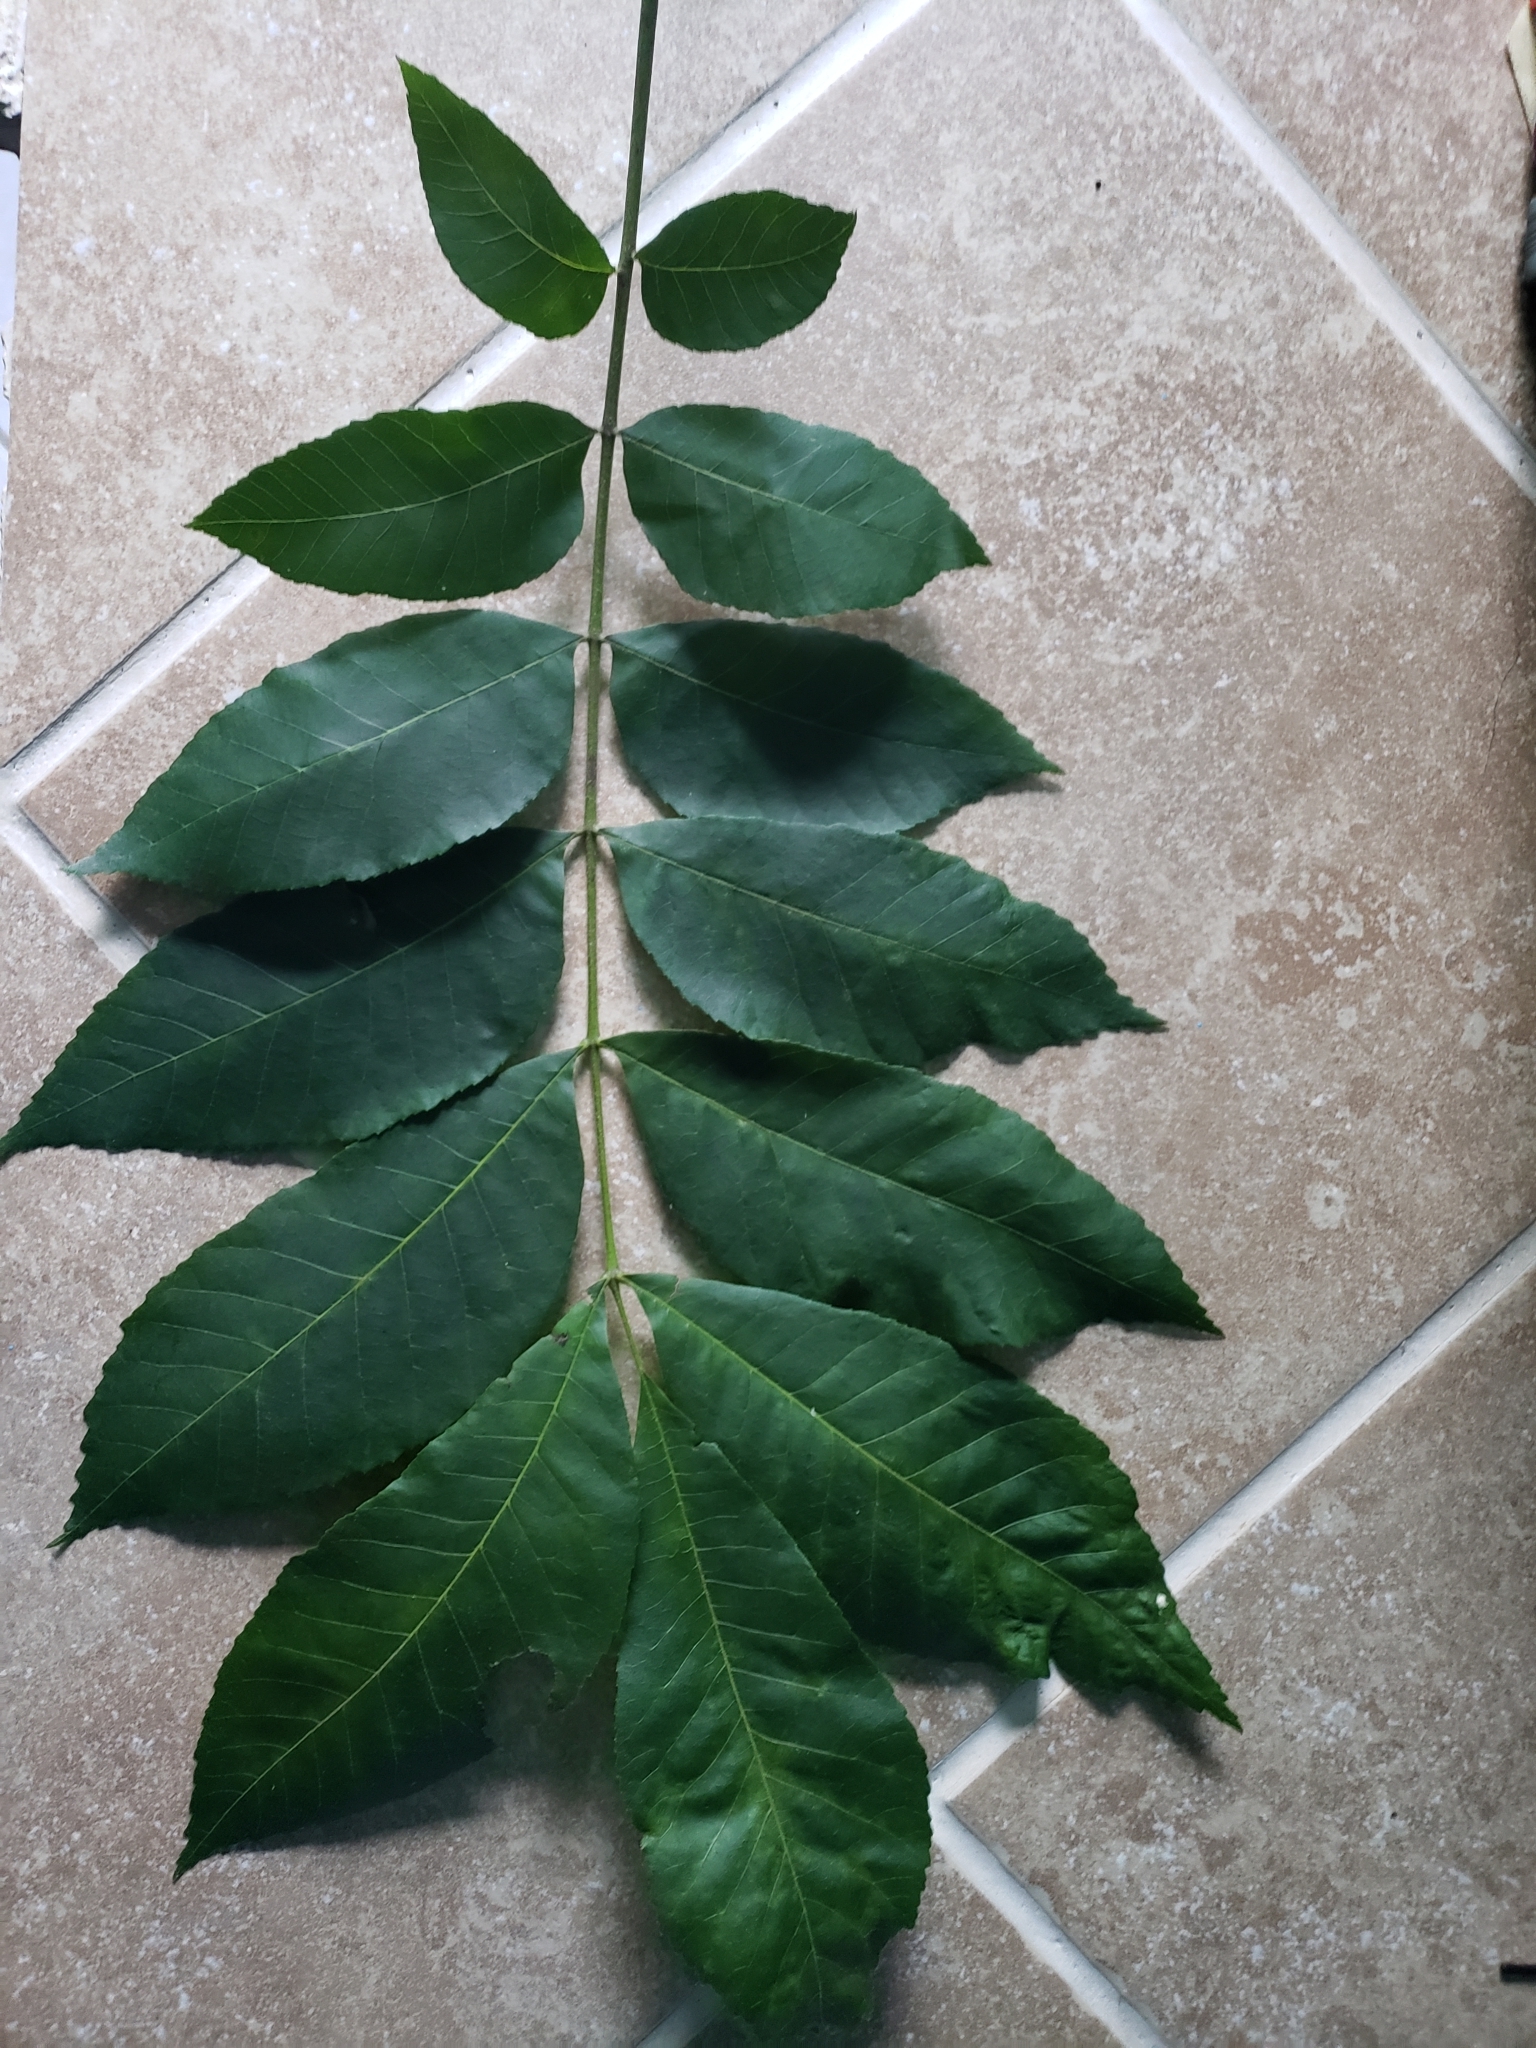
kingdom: Plantae
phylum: Tracheophyta
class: Magnoliopsida
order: Fagales
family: Juglandaceae
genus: Carya
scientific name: Carya illinoinensis
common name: Pecan
